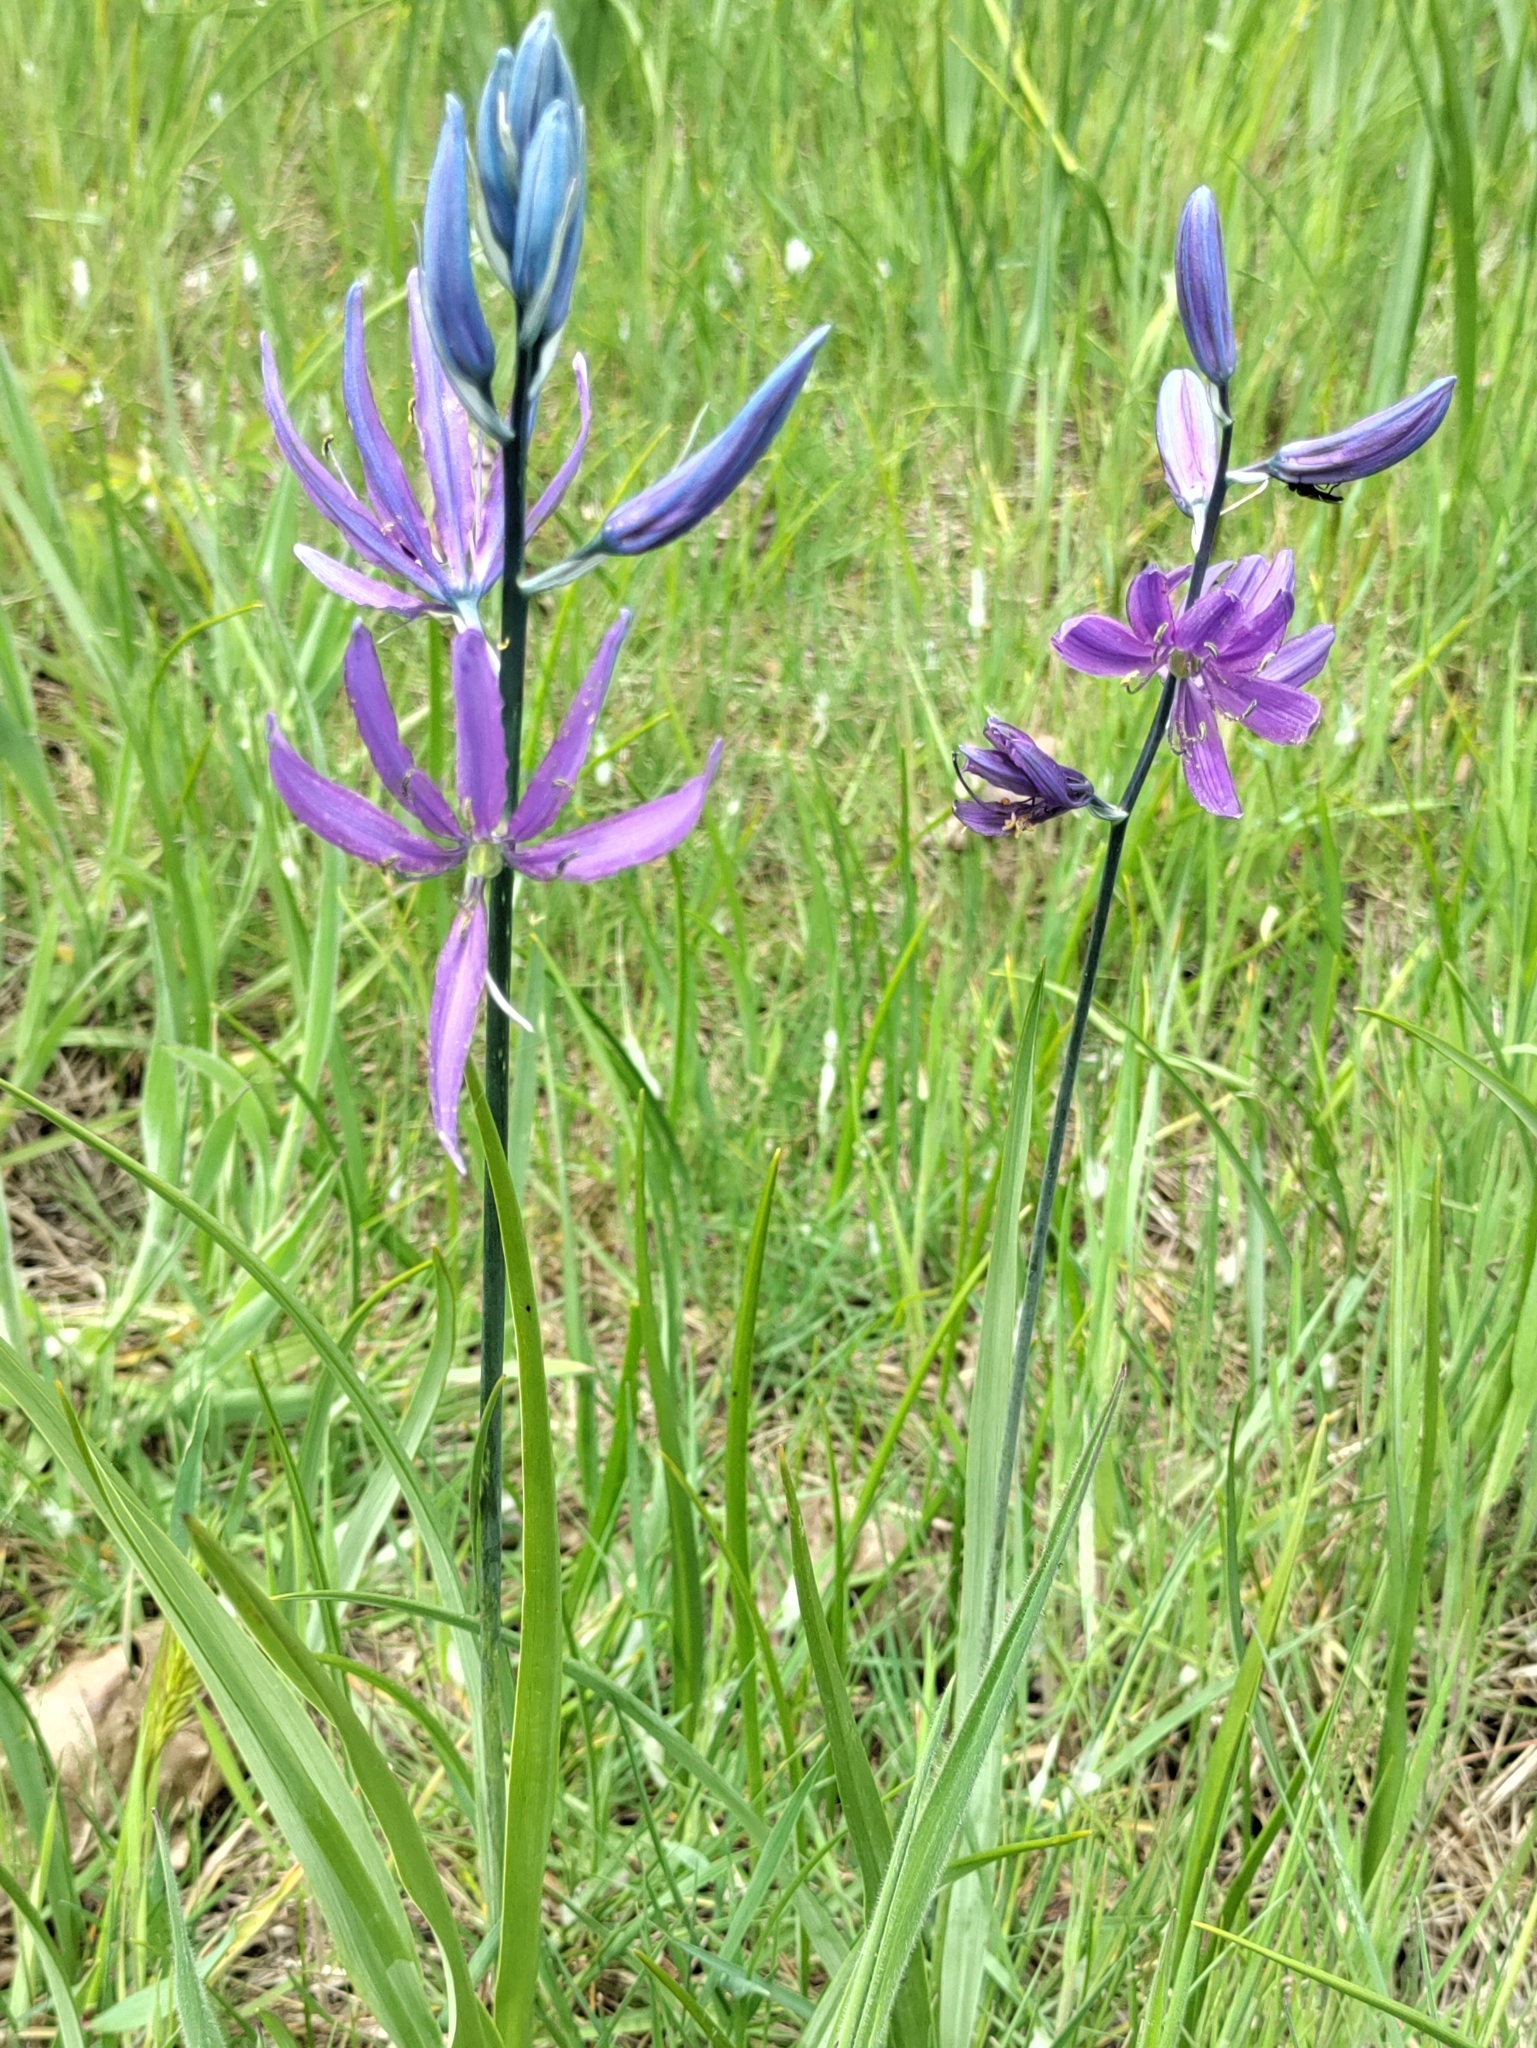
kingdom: Plantae
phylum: Tracheophyta
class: Liliopsida
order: Asparagales
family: Asparagaceae
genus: Camassia
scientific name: Camassia quamash
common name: Common camas
